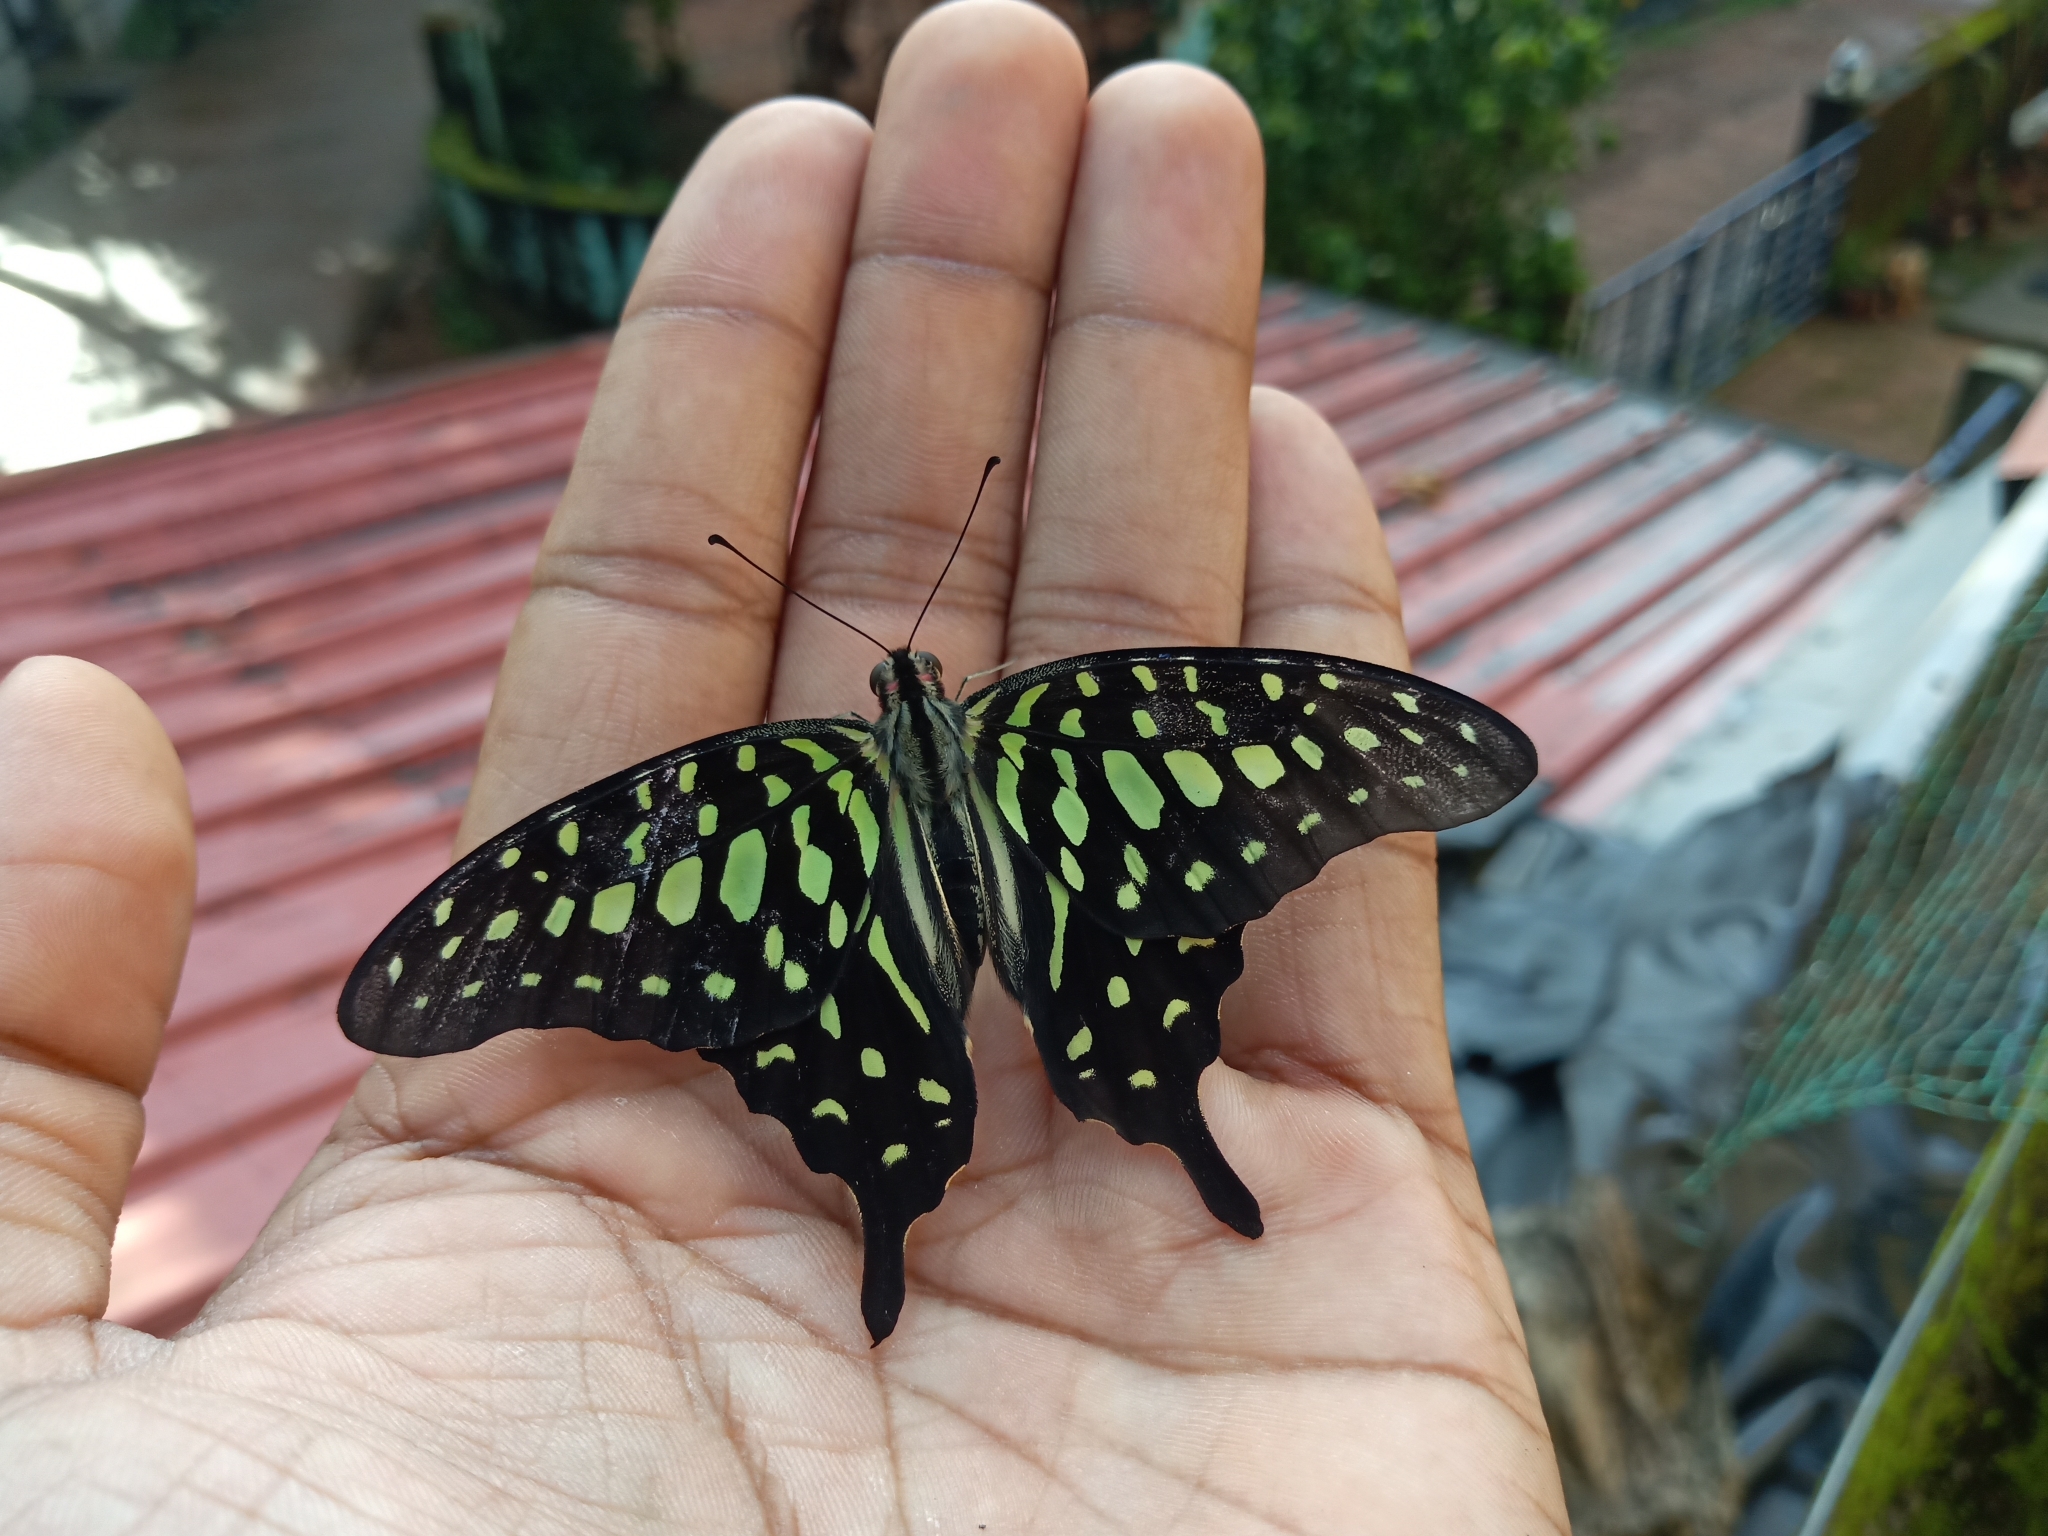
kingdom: Animalia
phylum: Arthropoda
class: Insecta
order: Lepidoptera
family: Papilionidae
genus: Graphium
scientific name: Graphium agamemnon
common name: Tailed jay
